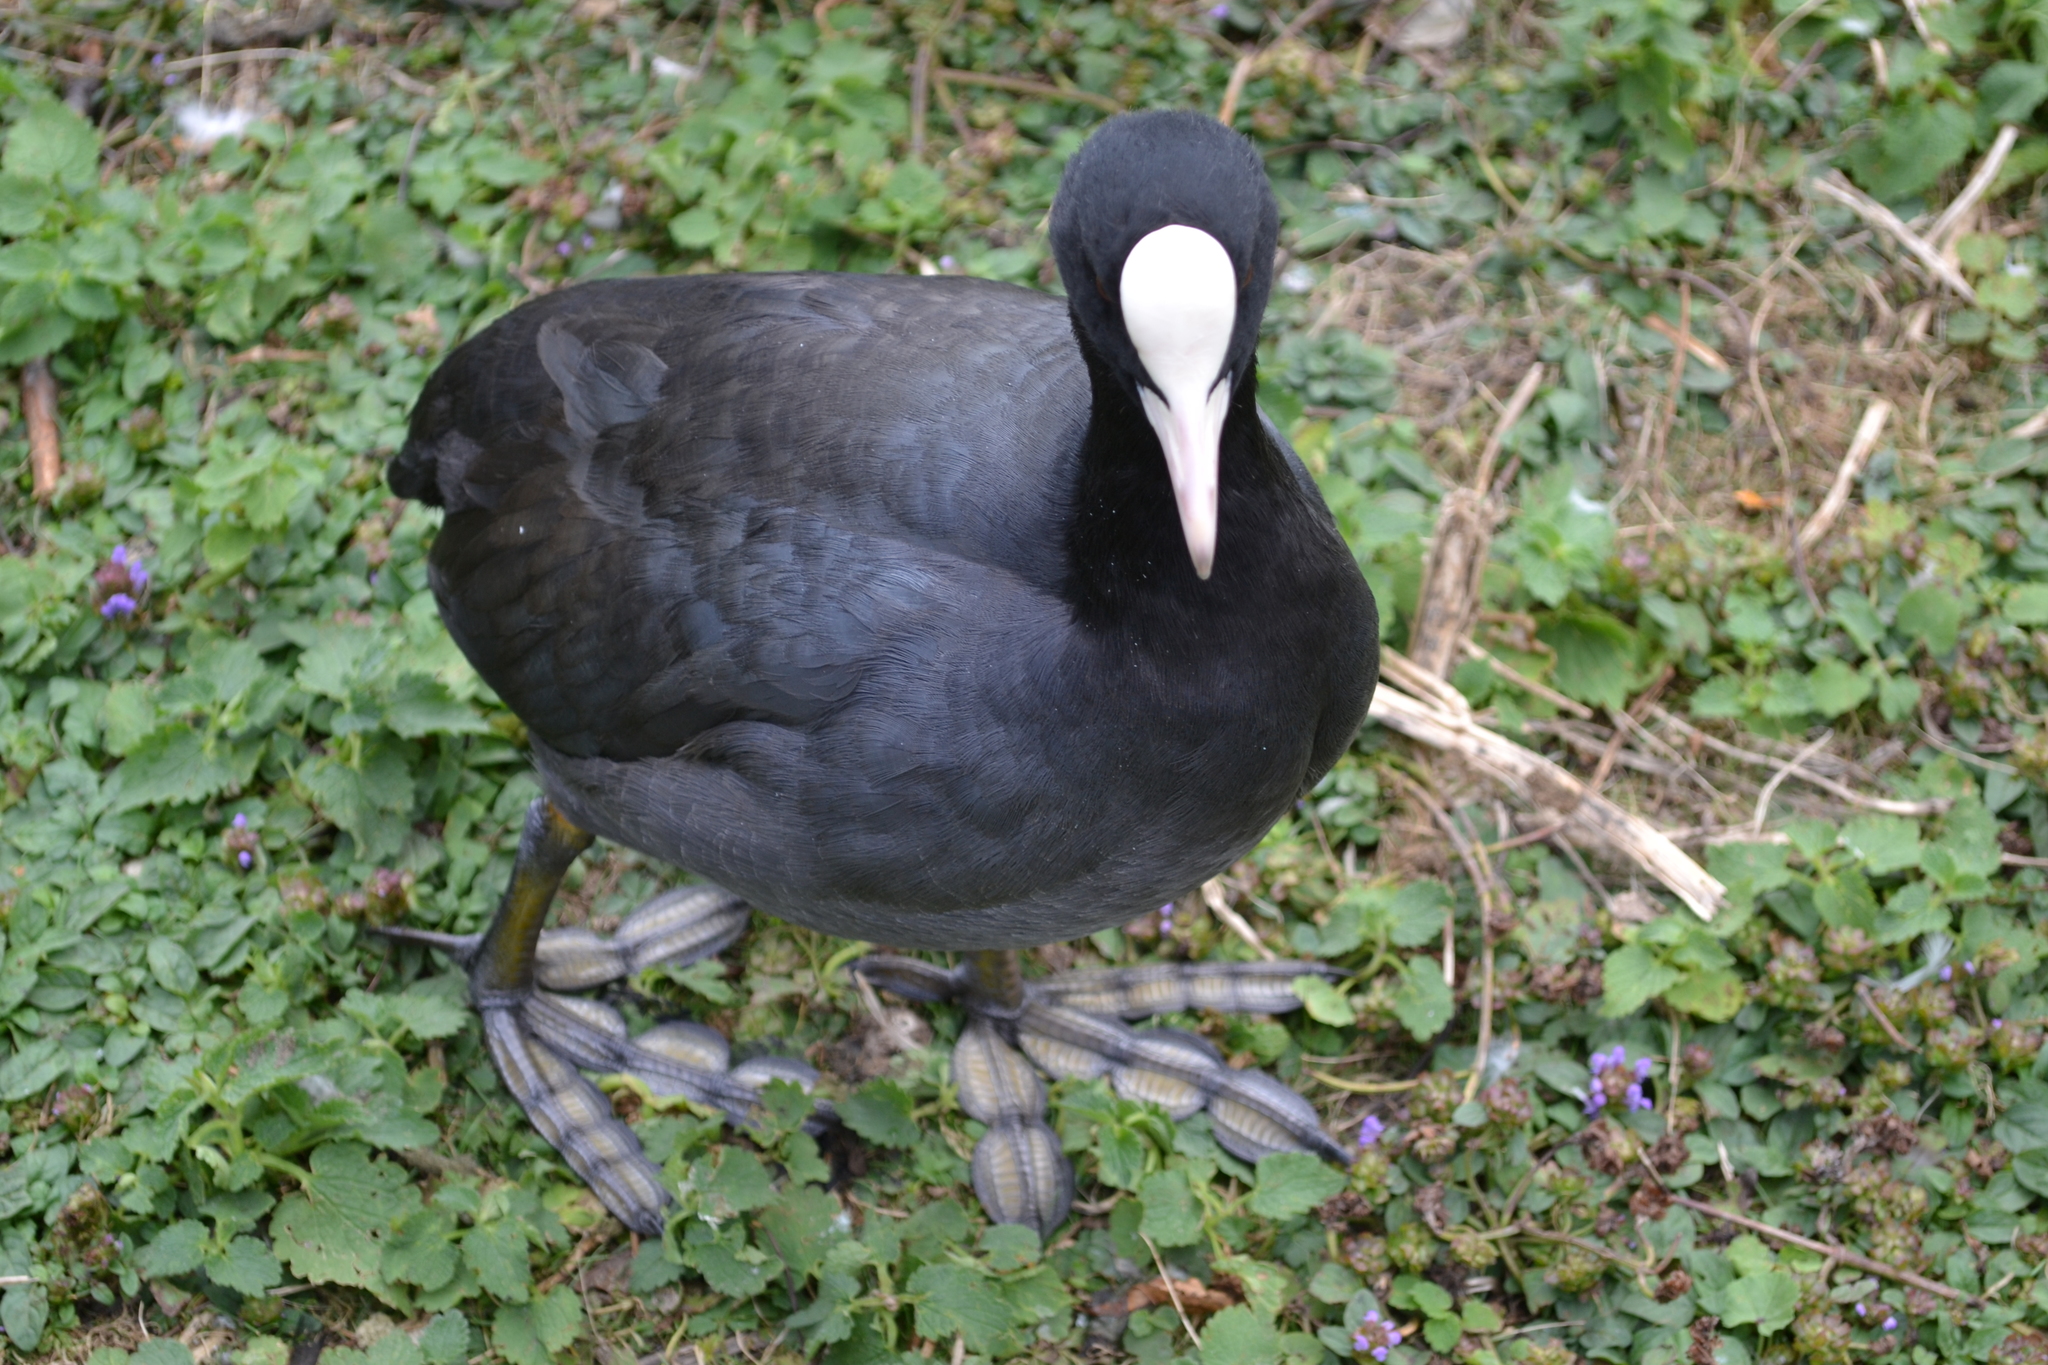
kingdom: Animalia
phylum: Chordata
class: Aves
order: Gruiformes
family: Rallidae
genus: Fulica
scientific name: Fulica atra
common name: Eurasian coot
